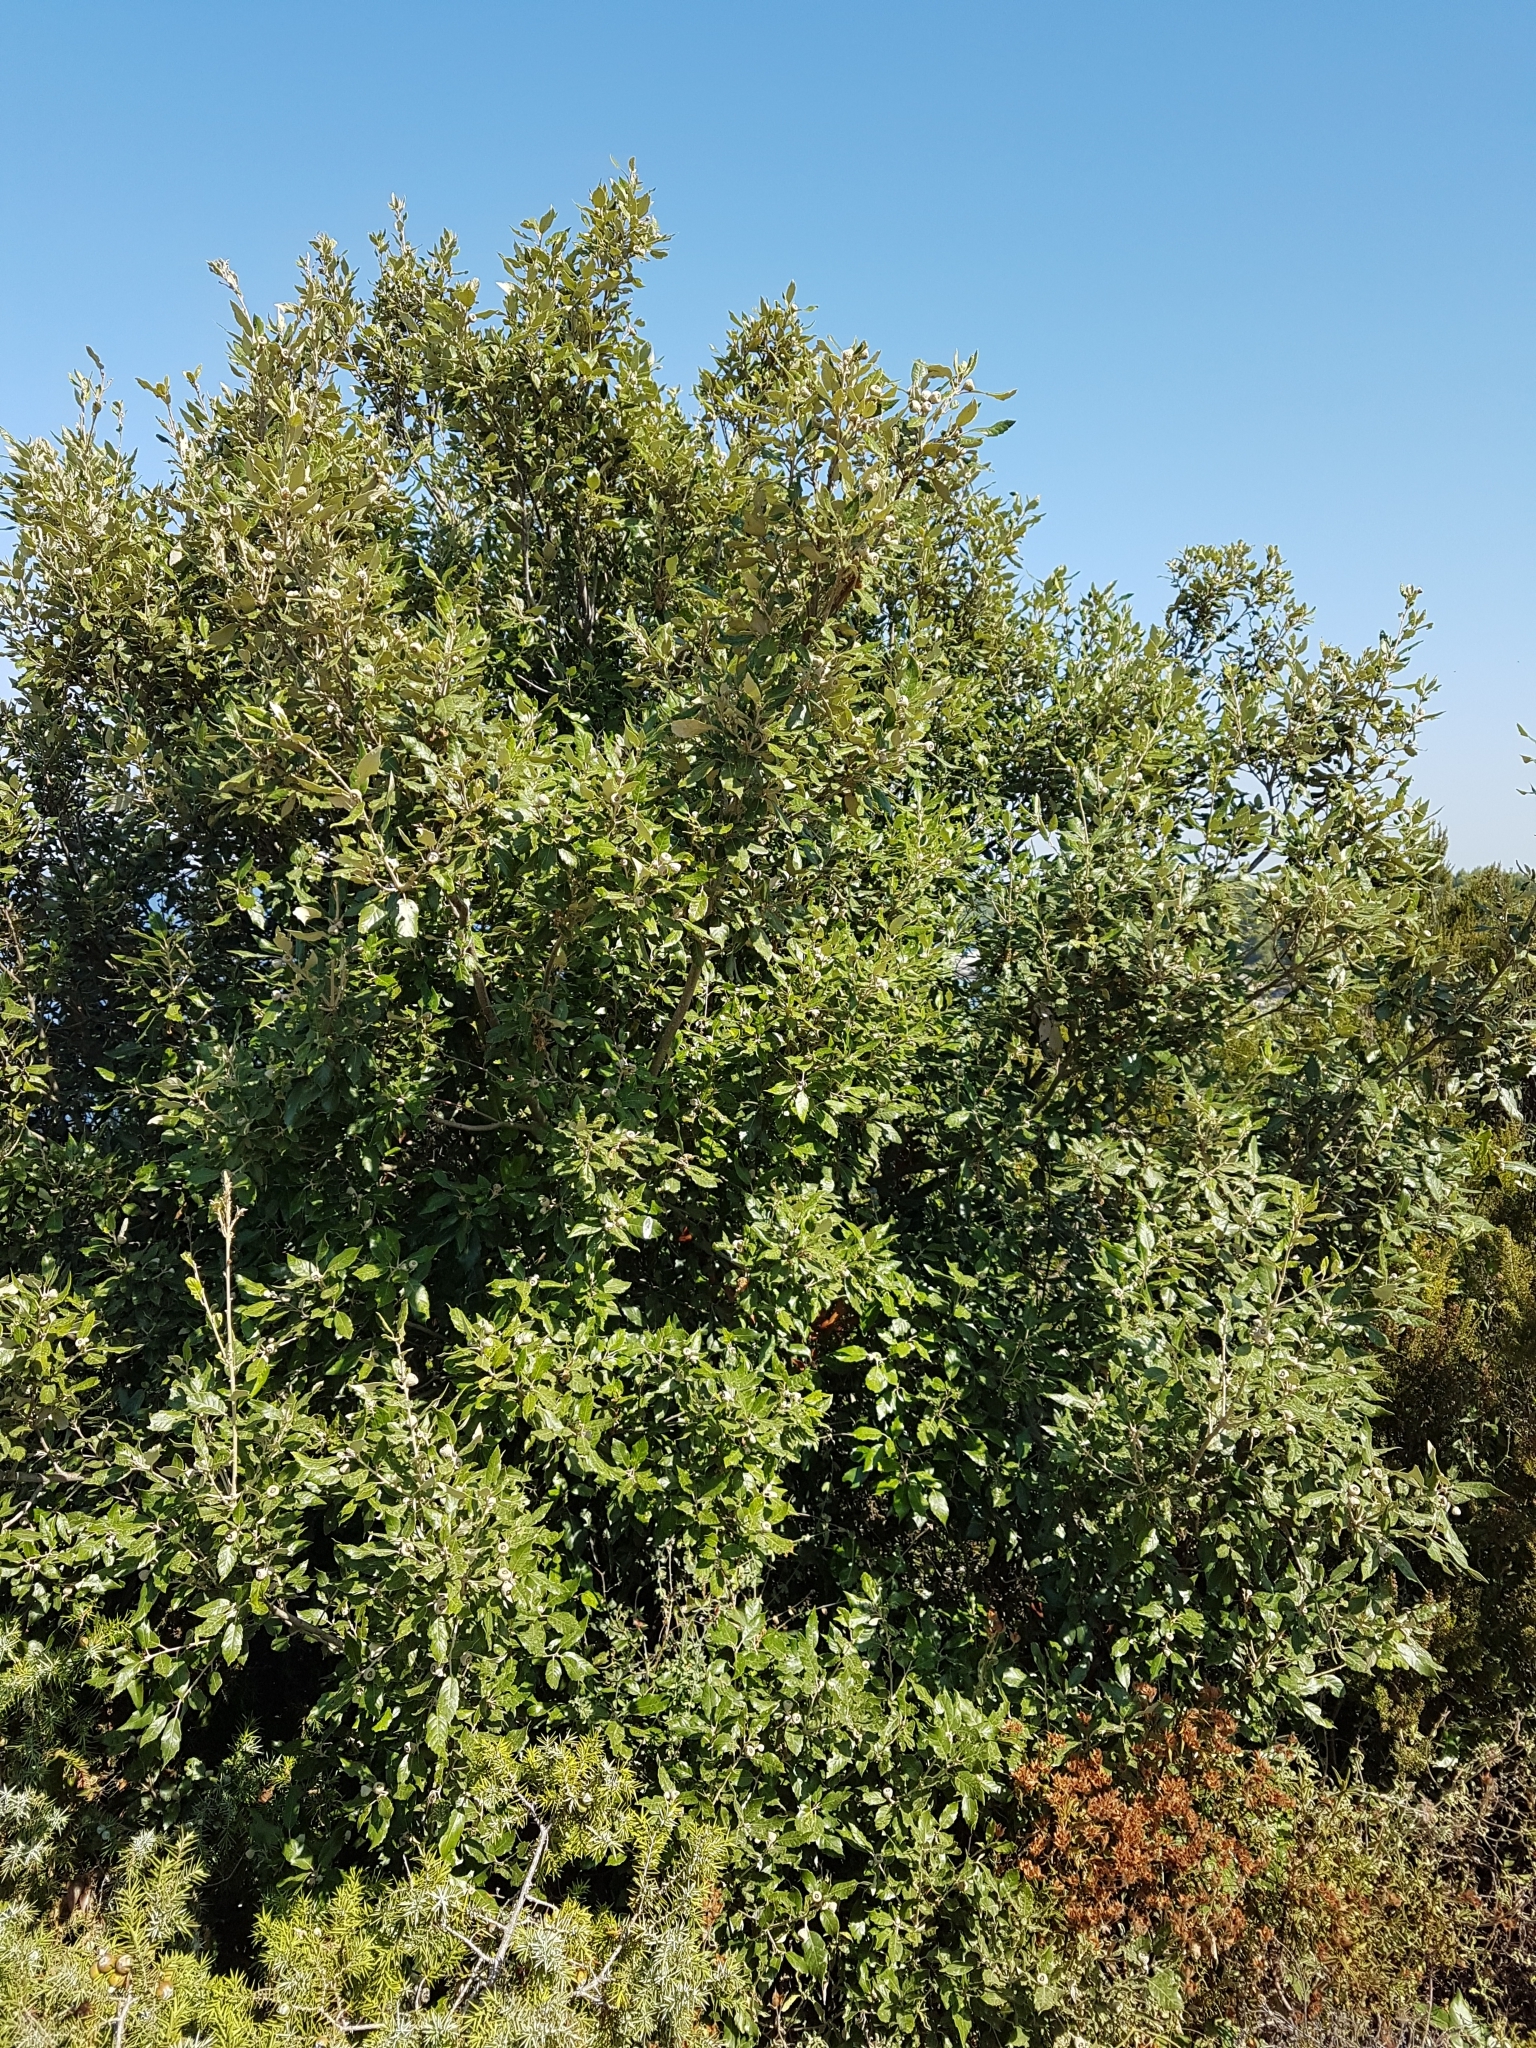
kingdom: Plantae
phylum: Tracheophyta
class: Magnoliopsida
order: Fagales
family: Fagaceae
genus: Quercus
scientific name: Quercus ilex
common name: Evergreen oak
